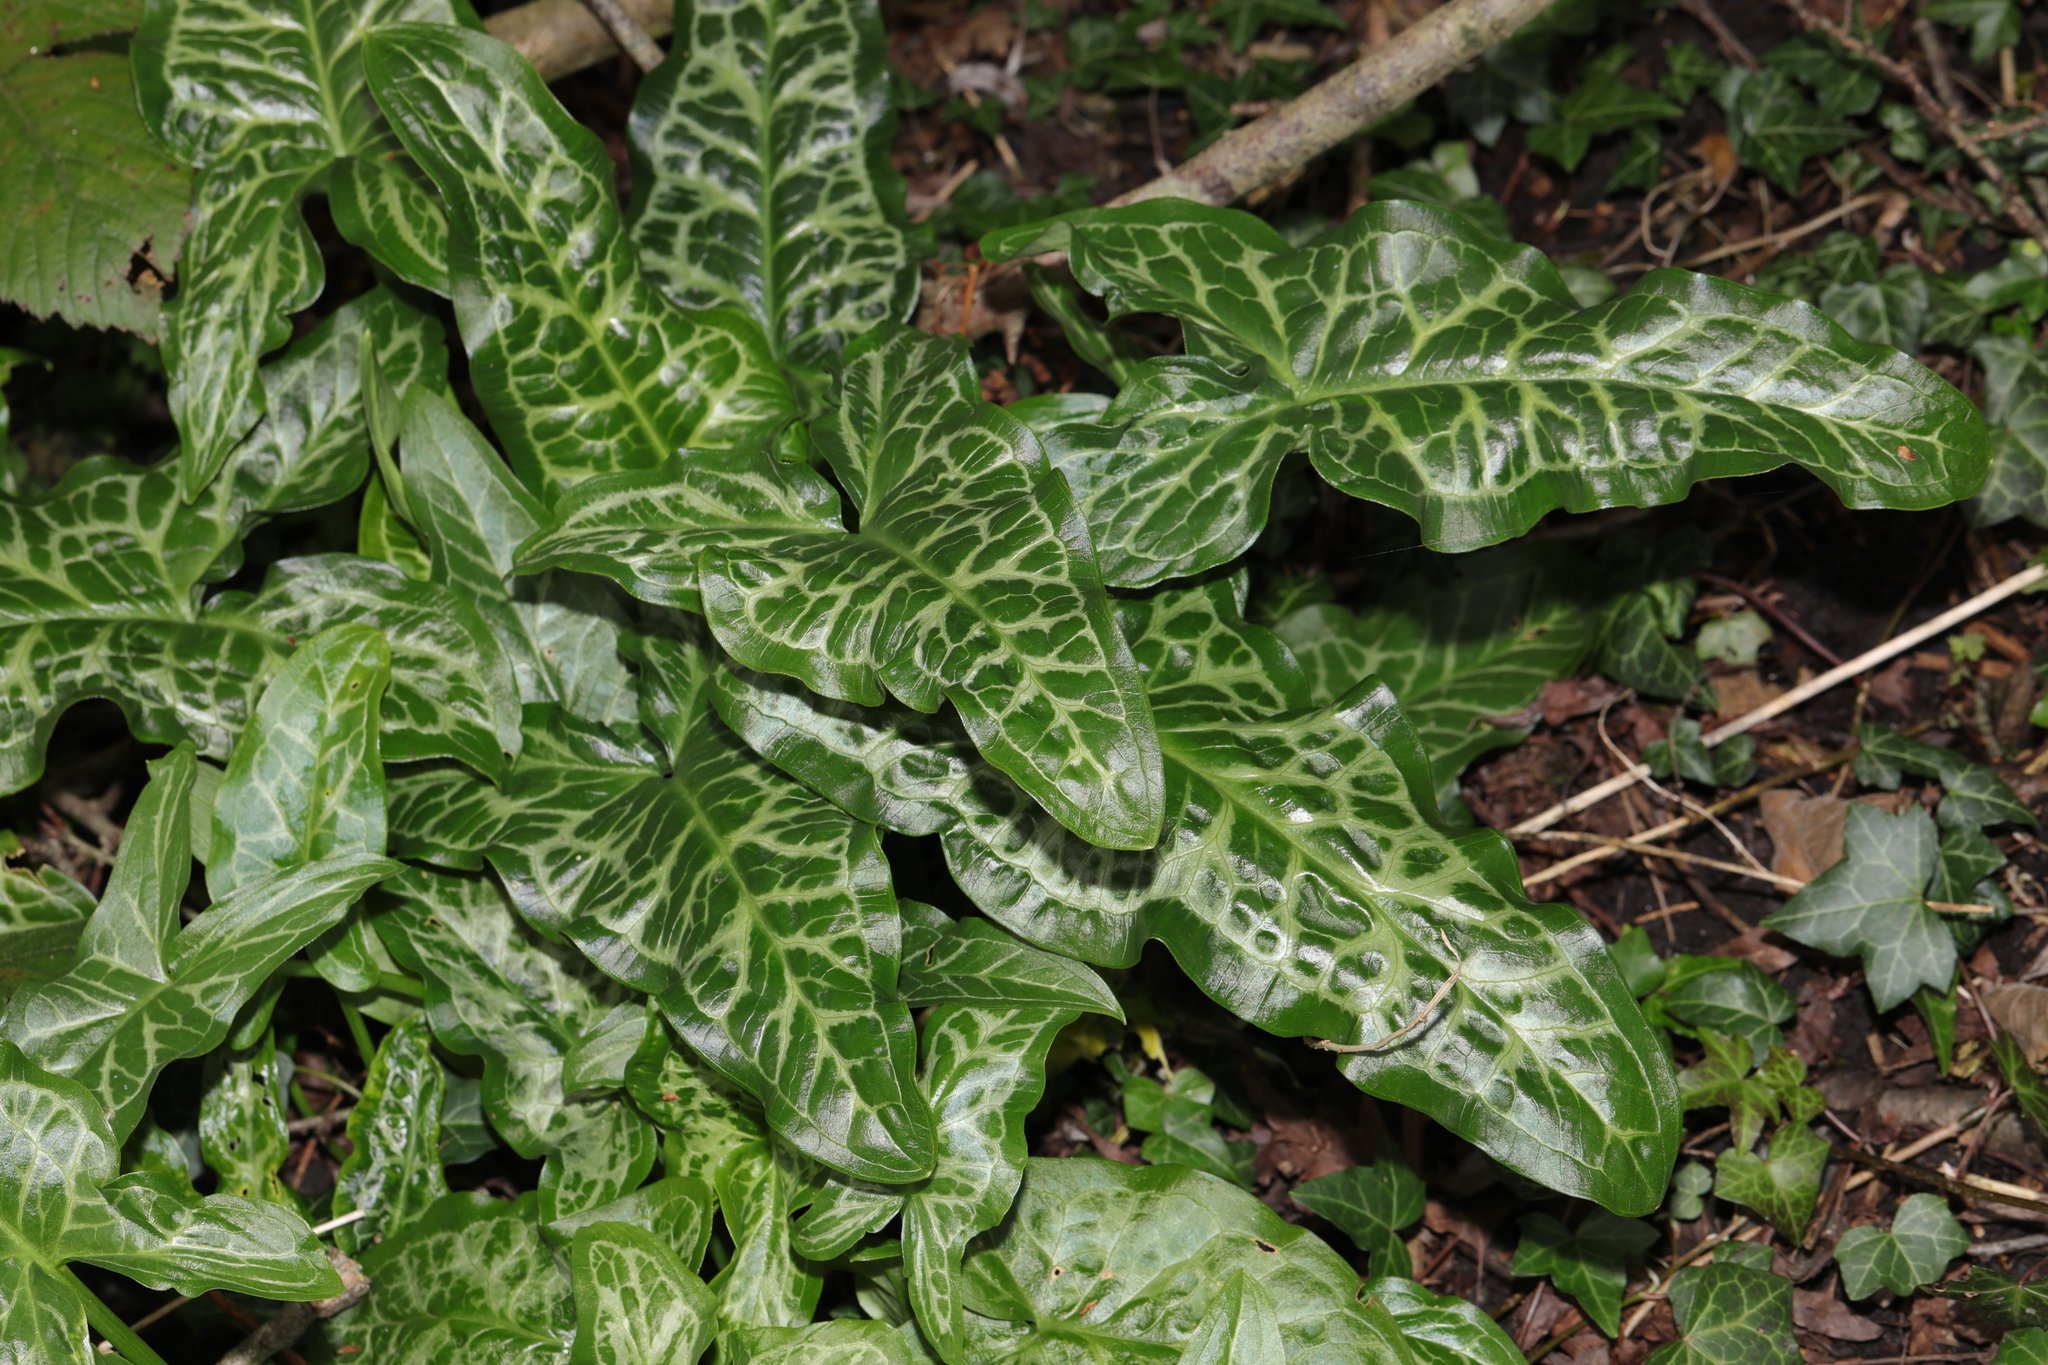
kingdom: Plantae
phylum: Tracheophyta
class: Liliopsida
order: Alismatales
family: Araceae
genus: Arum
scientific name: Arum italicum
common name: Italian lords-and-ladies
